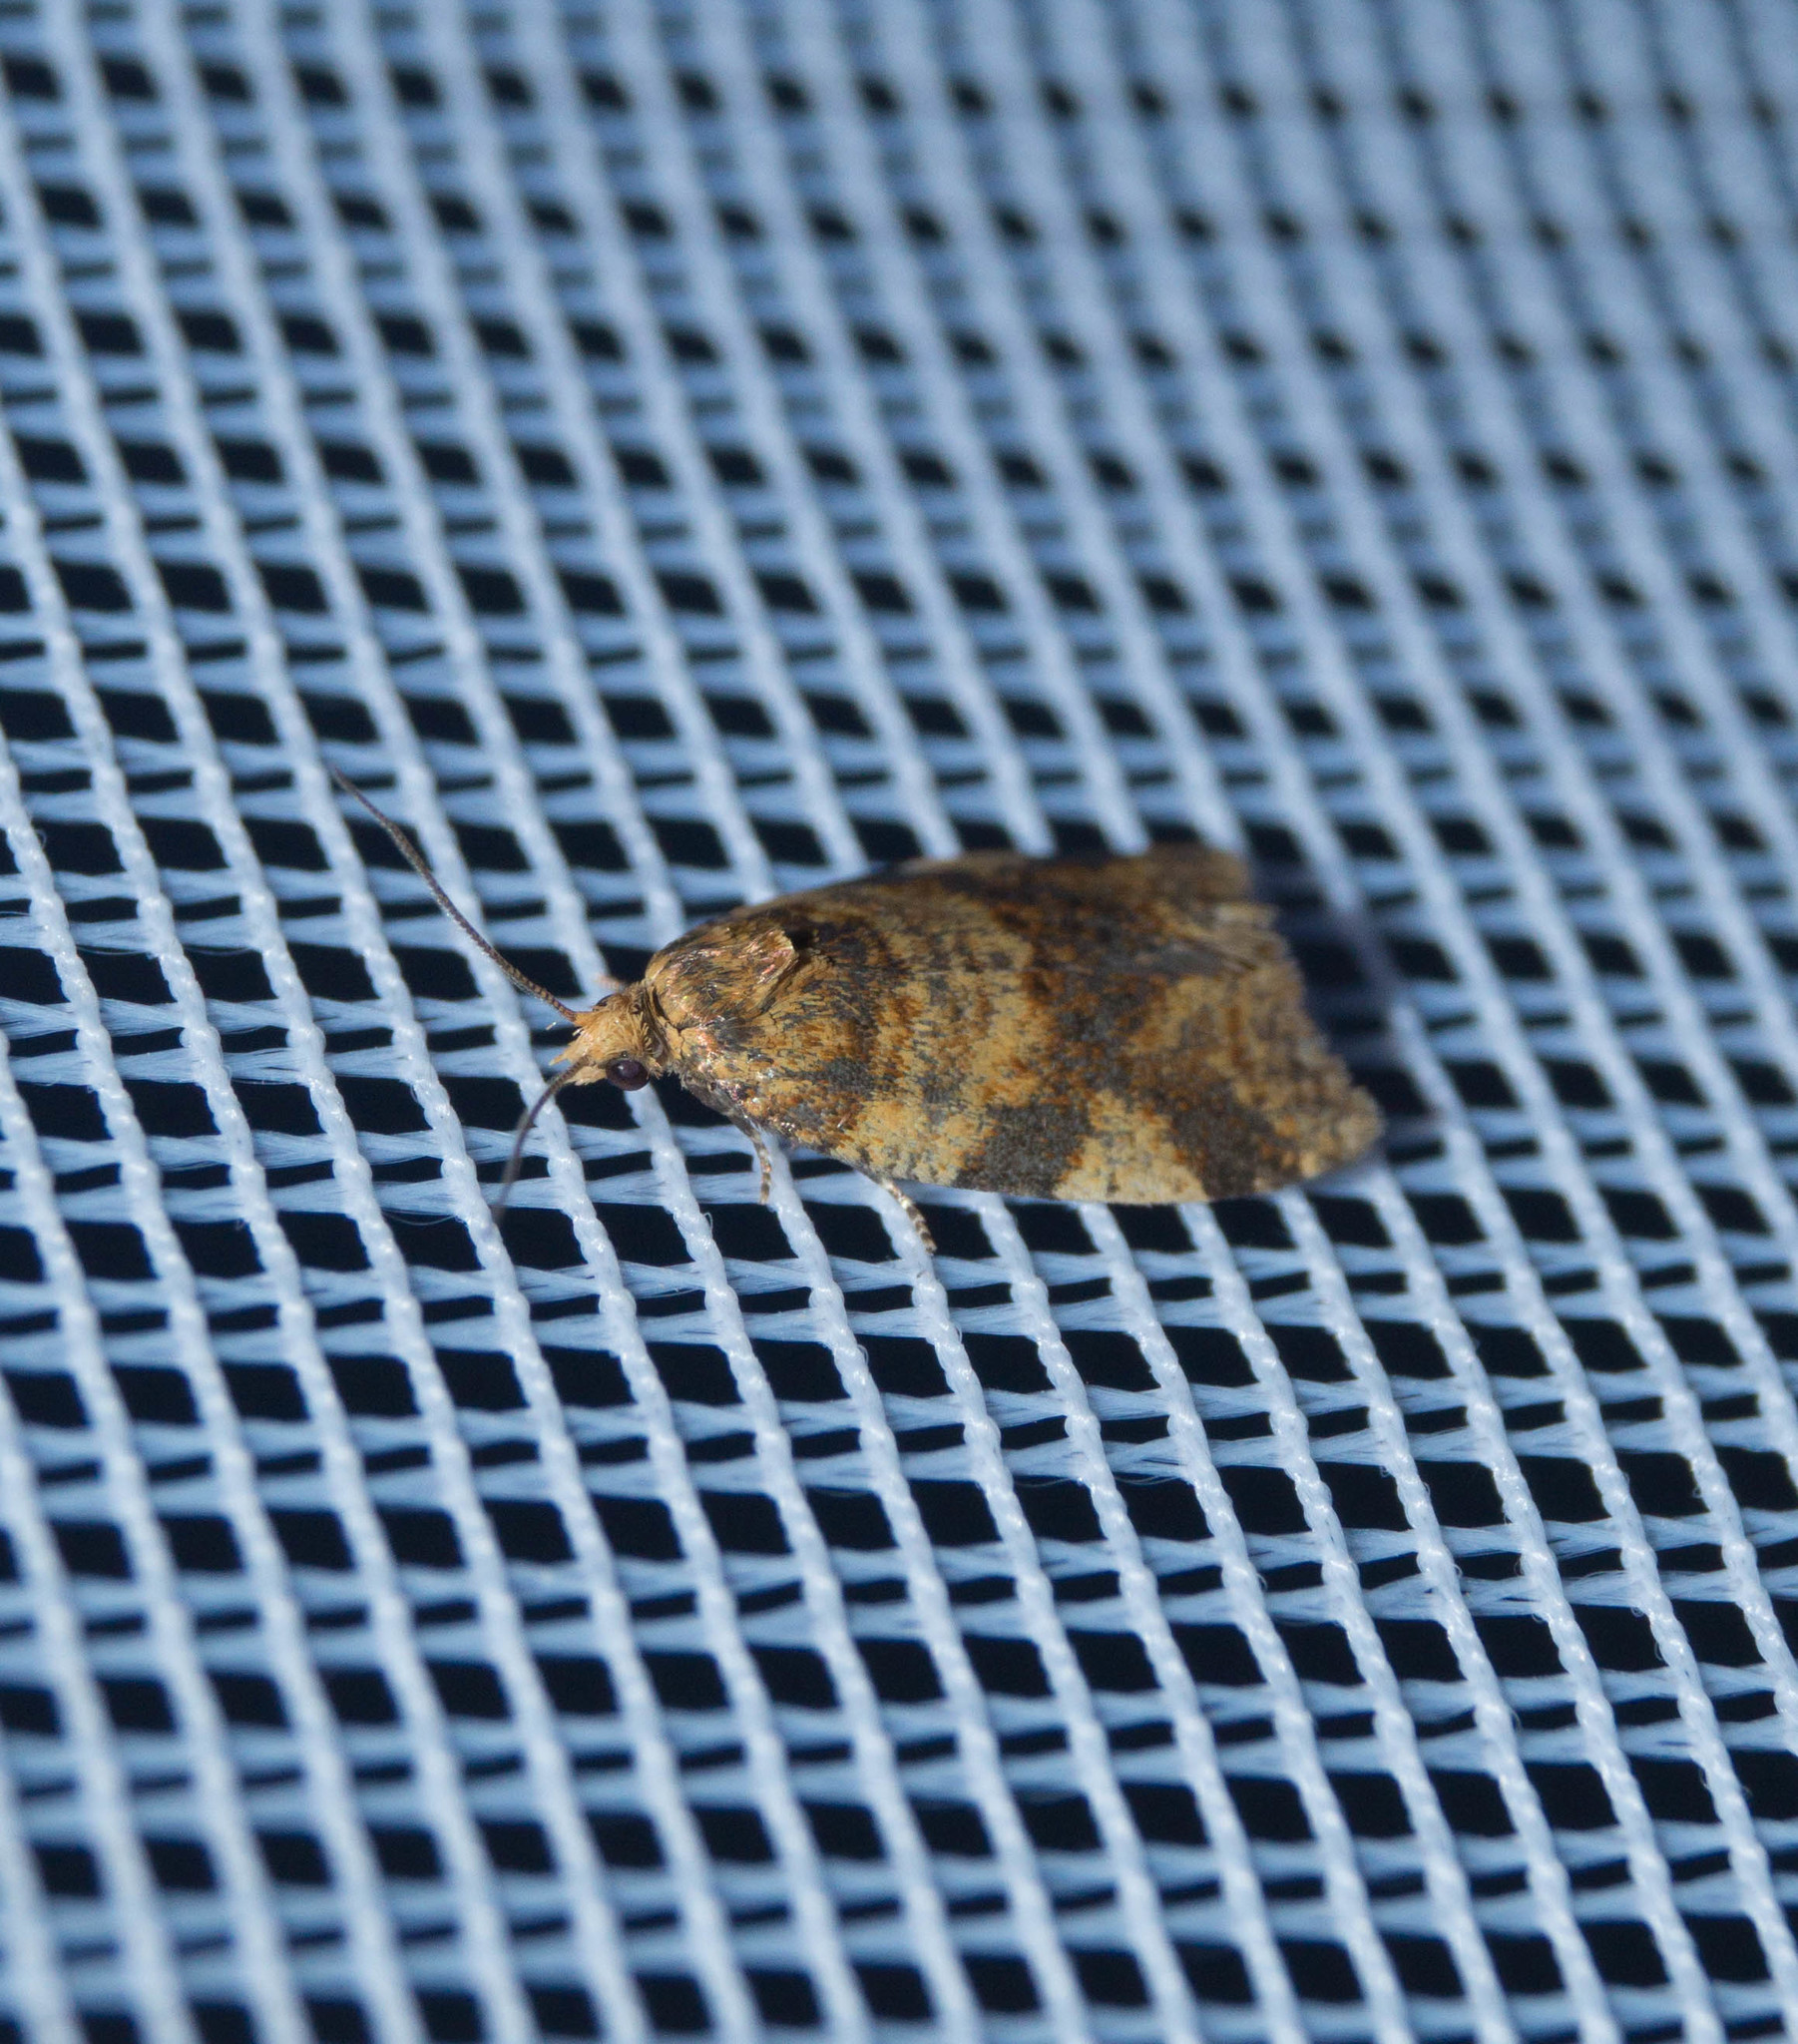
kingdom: Animalia
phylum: Arthropoda
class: Insecta
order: Lepidoptera
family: Tortricidae
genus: Epagoge
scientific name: Epagoge grotiana
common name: Brown-barred twist
